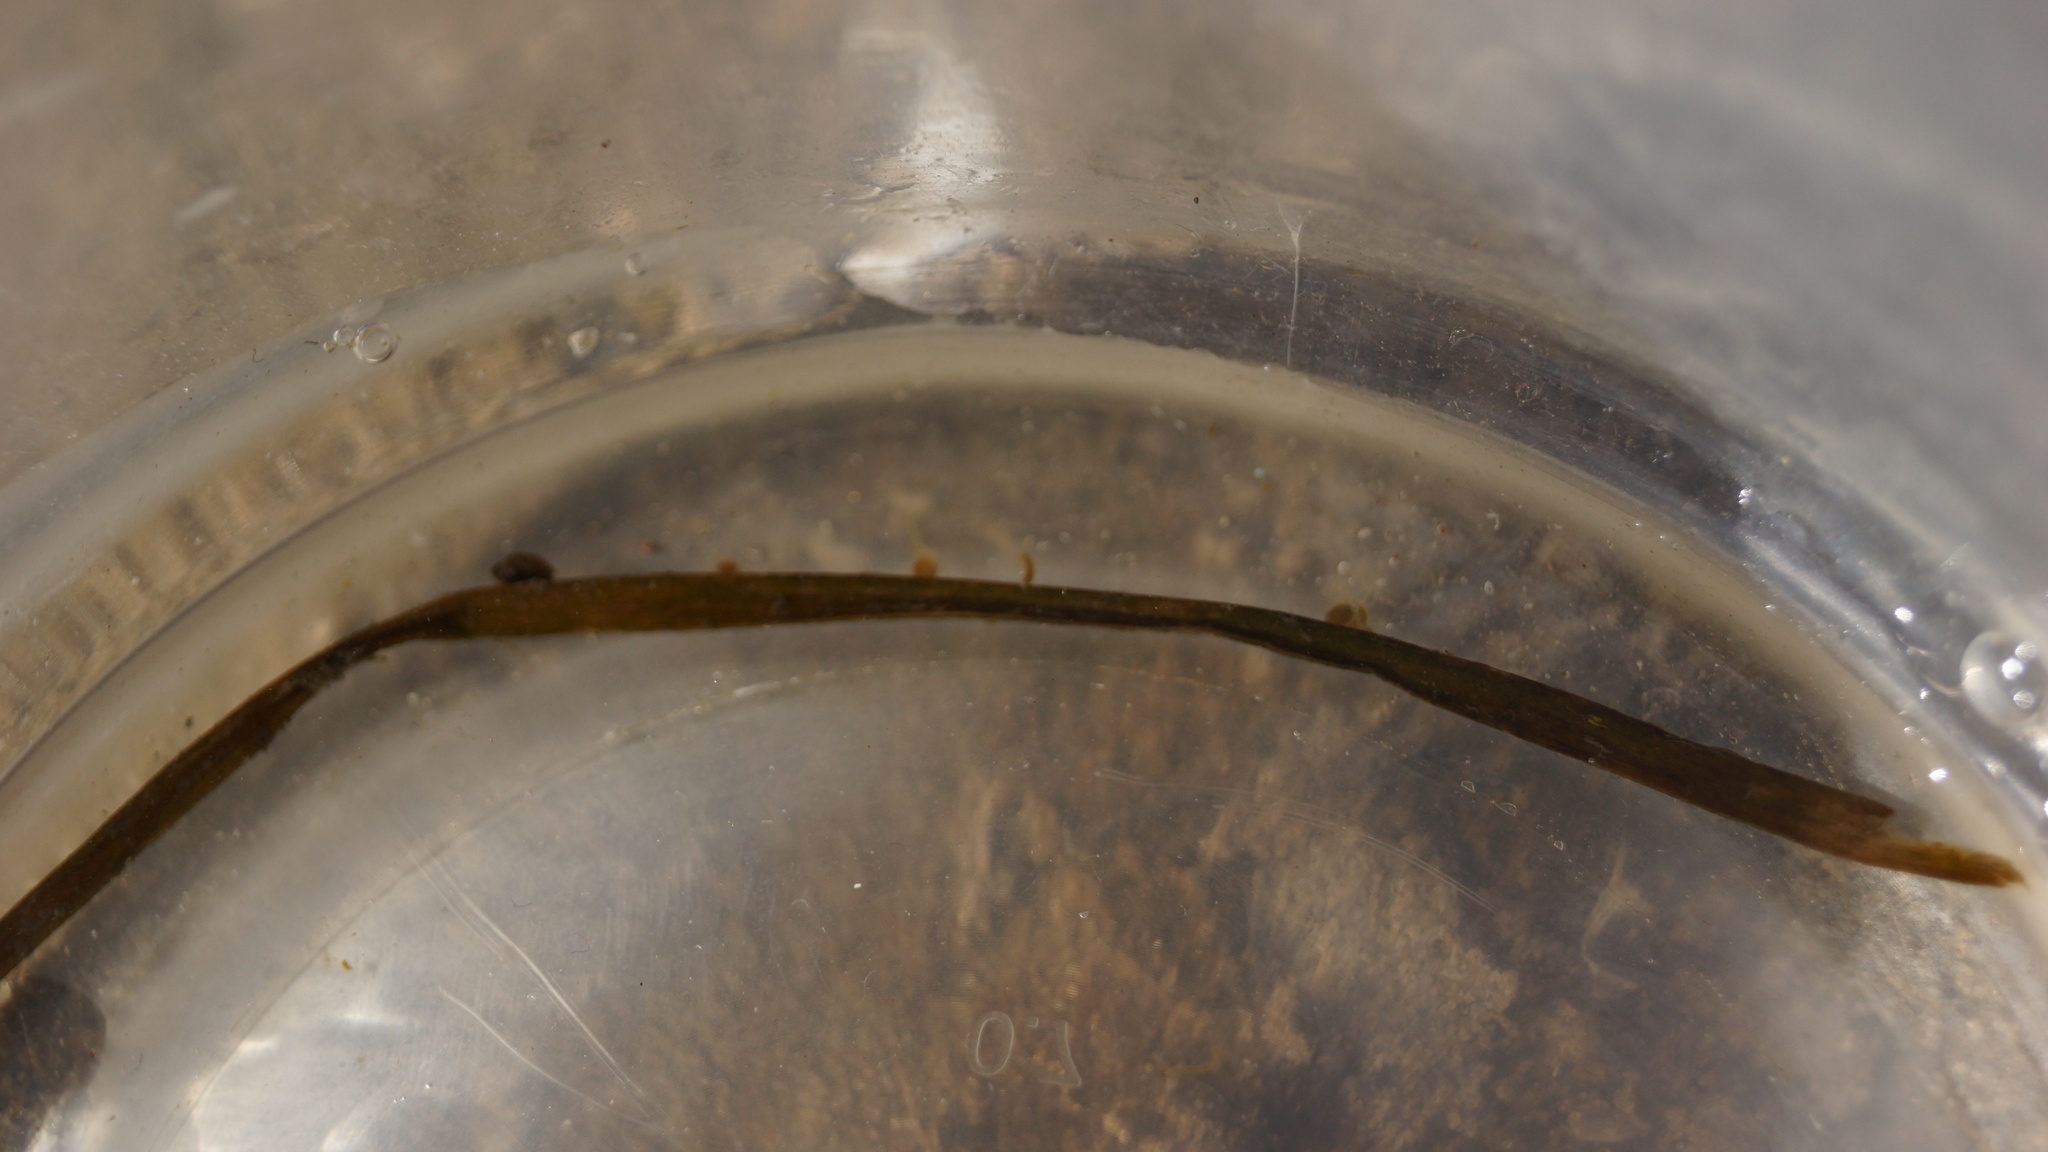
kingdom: Animalia
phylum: Cnidaria
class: Hydrozoa
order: Anthoathecata
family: Hydridae
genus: Hydra
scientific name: Hydra vulgaris
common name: Common hydra
